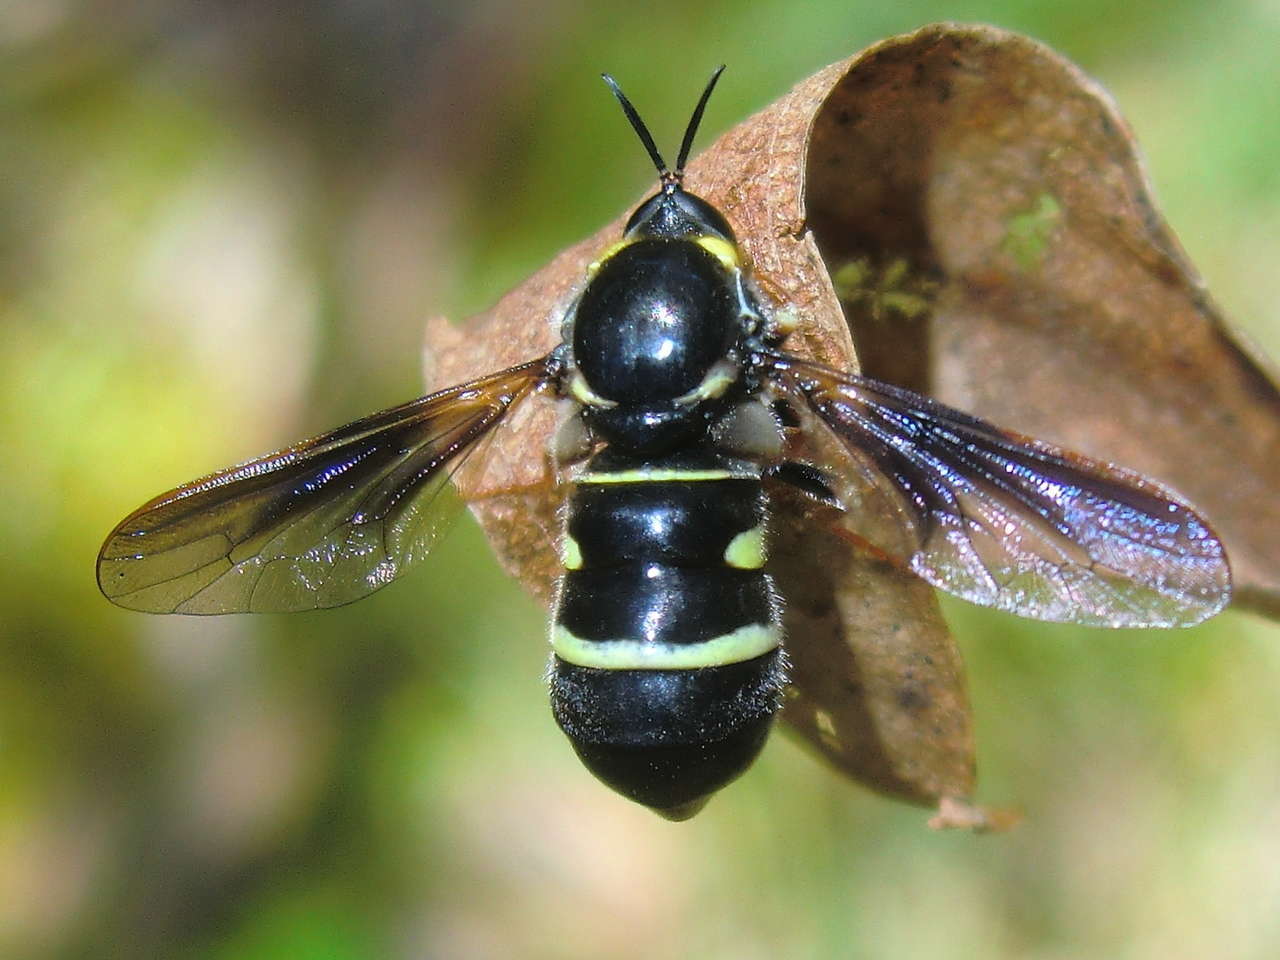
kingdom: Animalia
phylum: Arthropoda
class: Insecta
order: Diptera
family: Acroceridae
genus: Leucopsina
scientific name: Leucopsina burnsi
